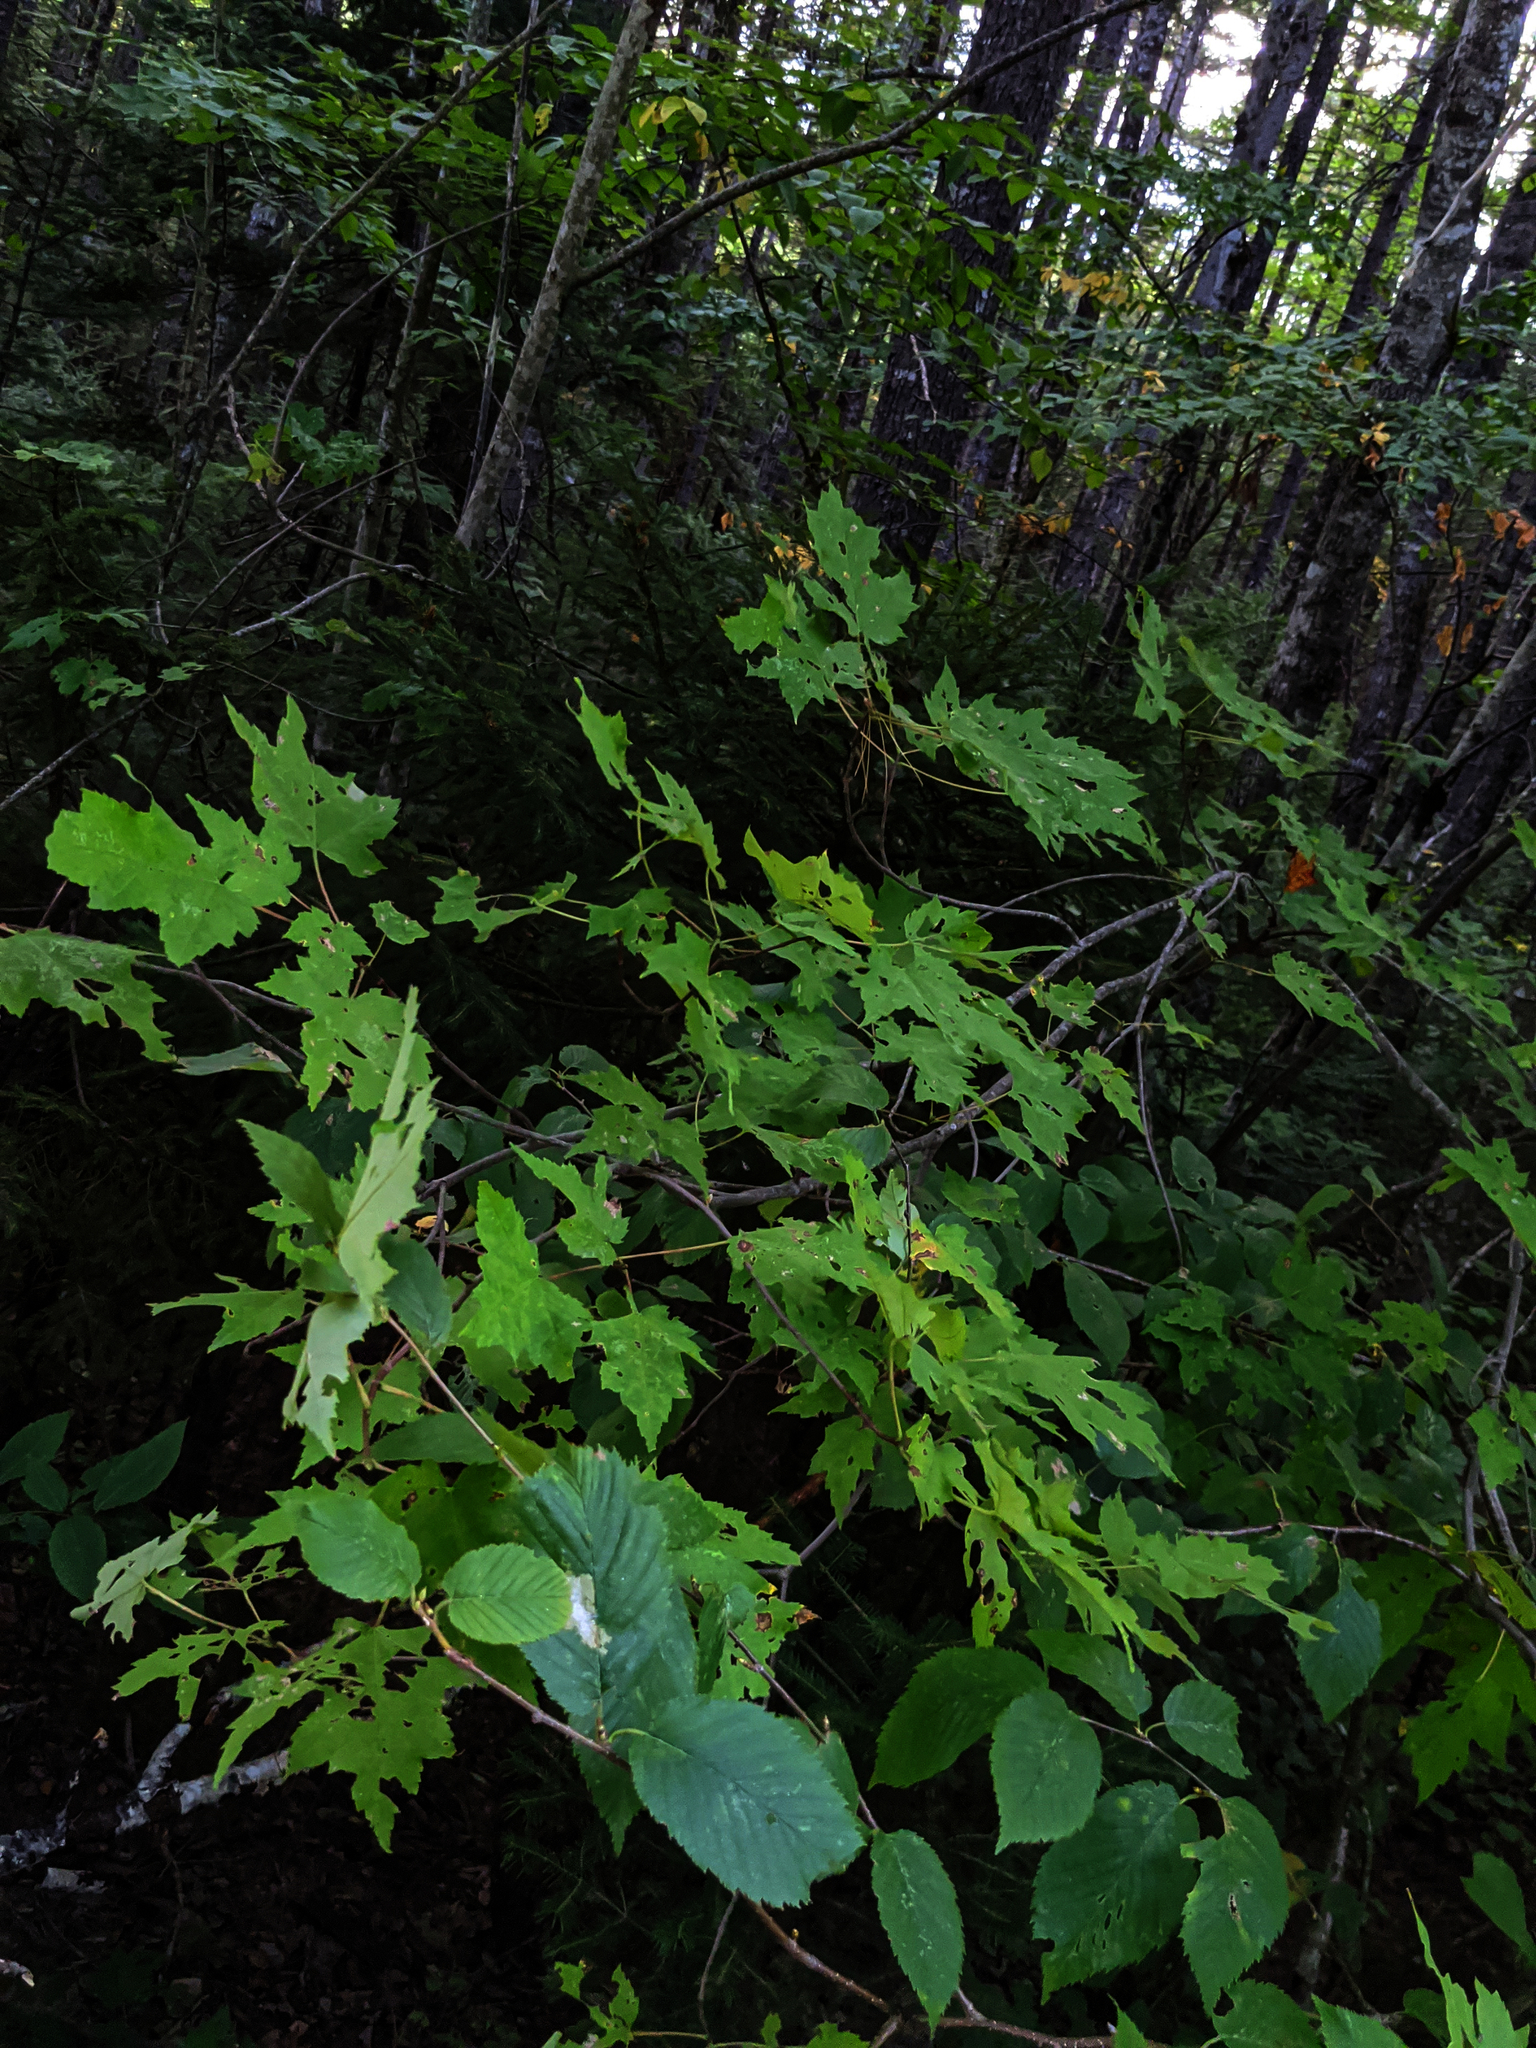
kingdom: Plantae
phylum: Tracheophyta
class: Magnoliopsida
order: Sapindales
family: Sapindaceae
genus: Acer
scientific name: Acer rubrum
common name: Red maple
